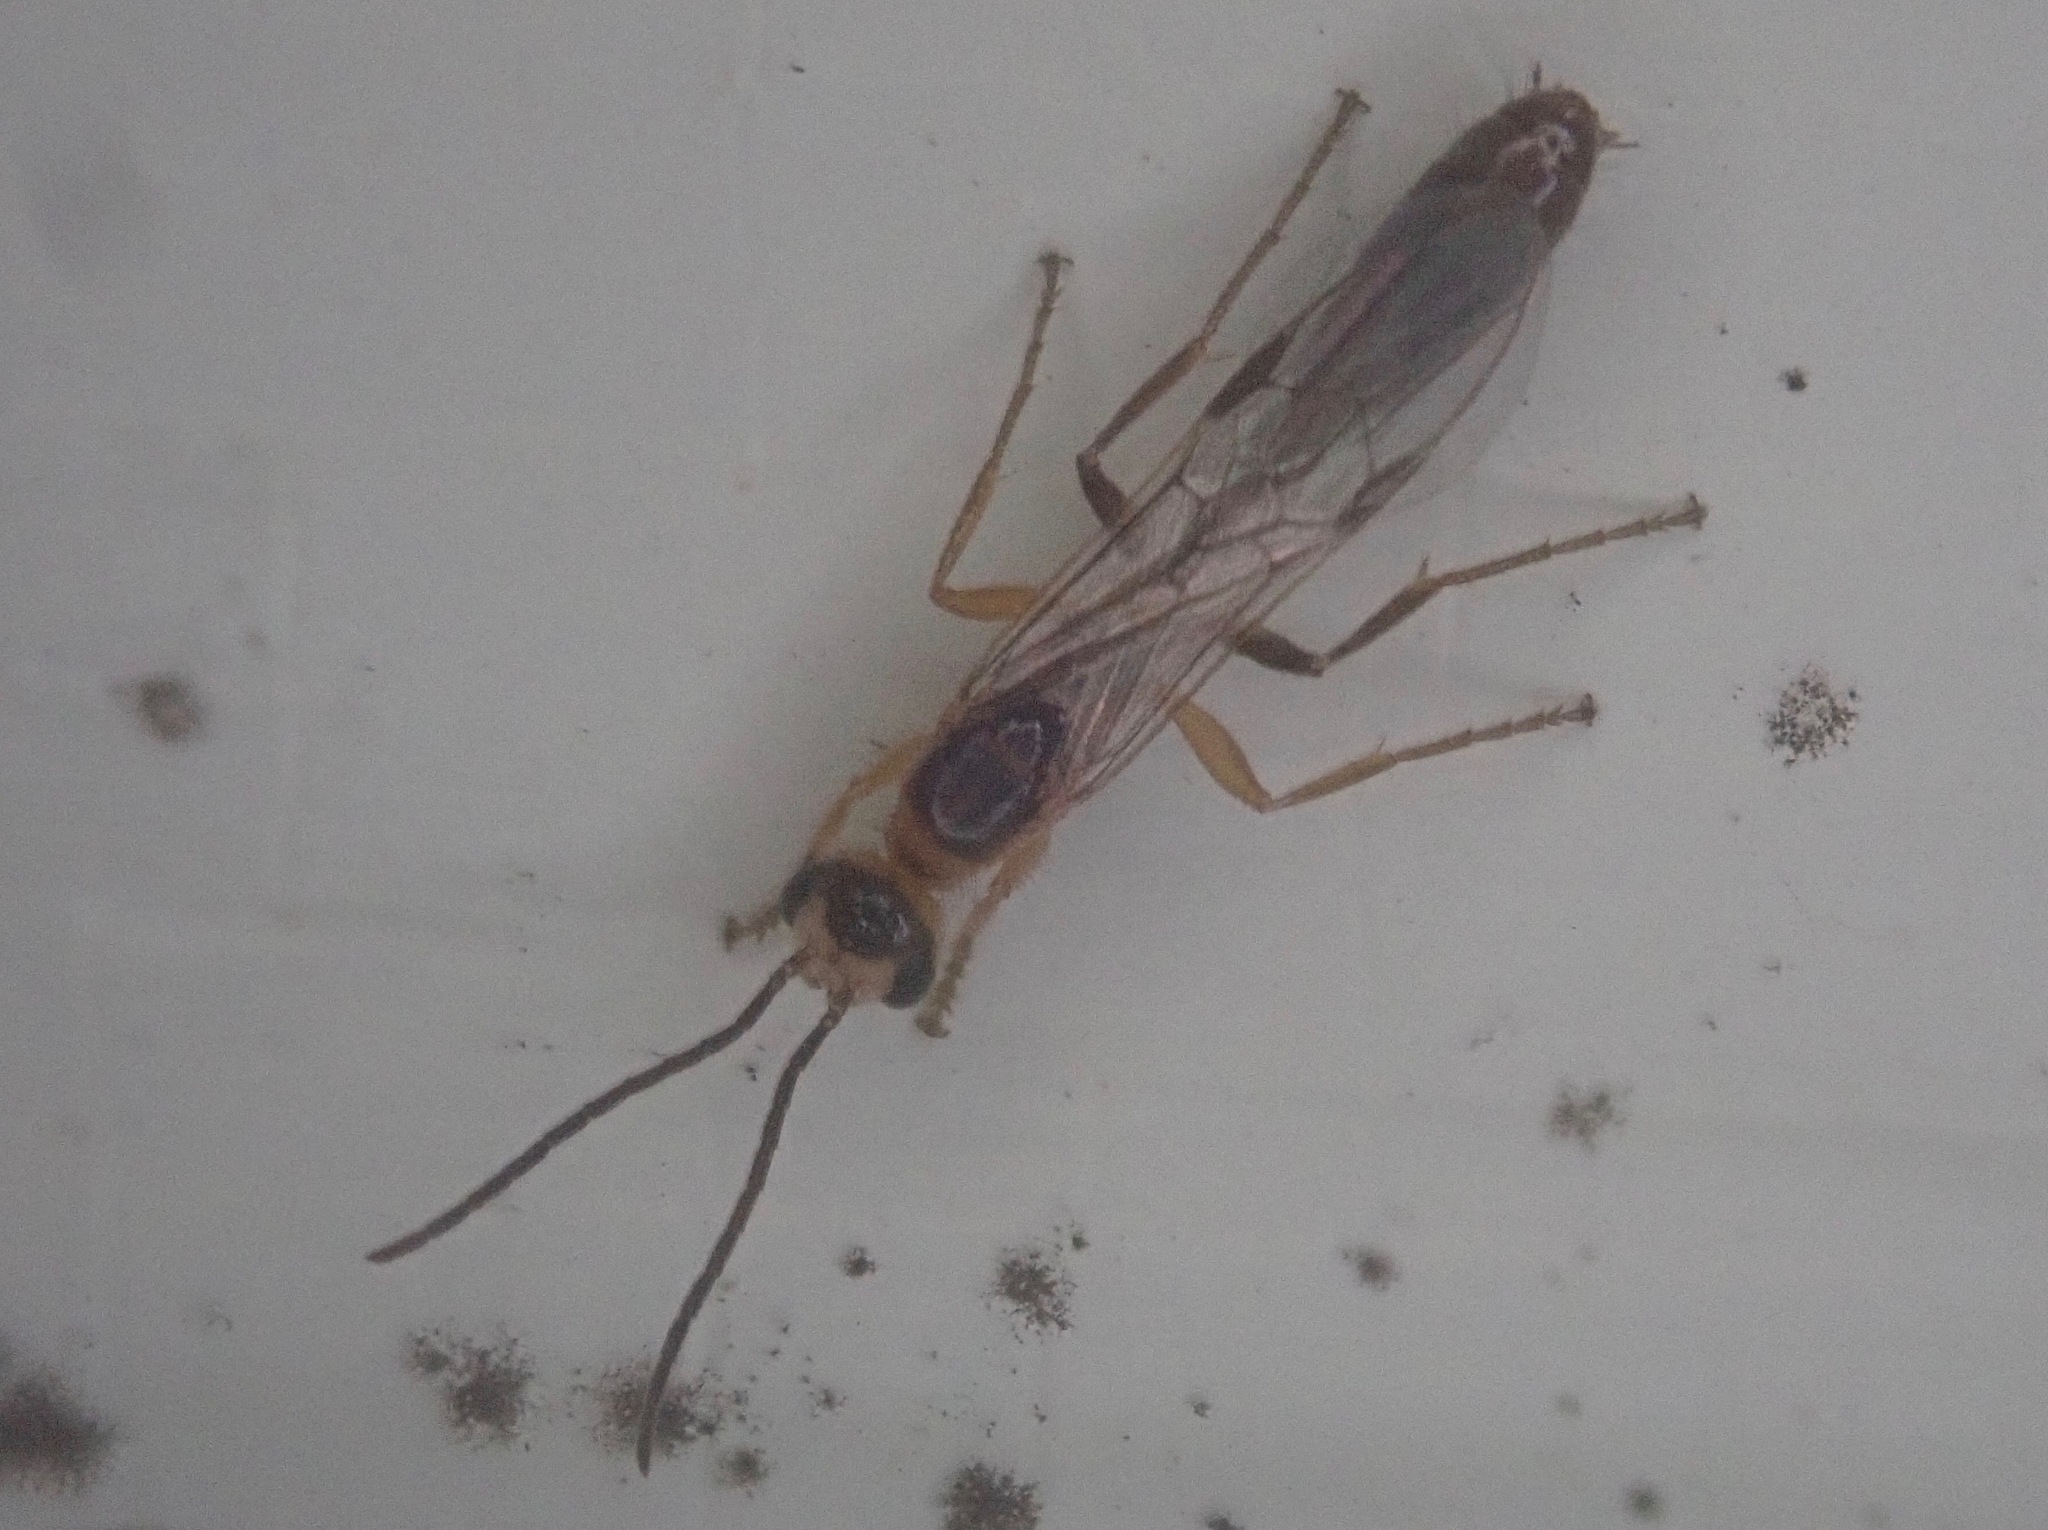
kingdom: Animalia
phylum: Arthropoda
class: Insecta
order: Hymenoptera
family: Formicidae
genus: Pseudomyrmex
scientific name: Pseudomyrmex gracilis
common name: Graceful twig ant
